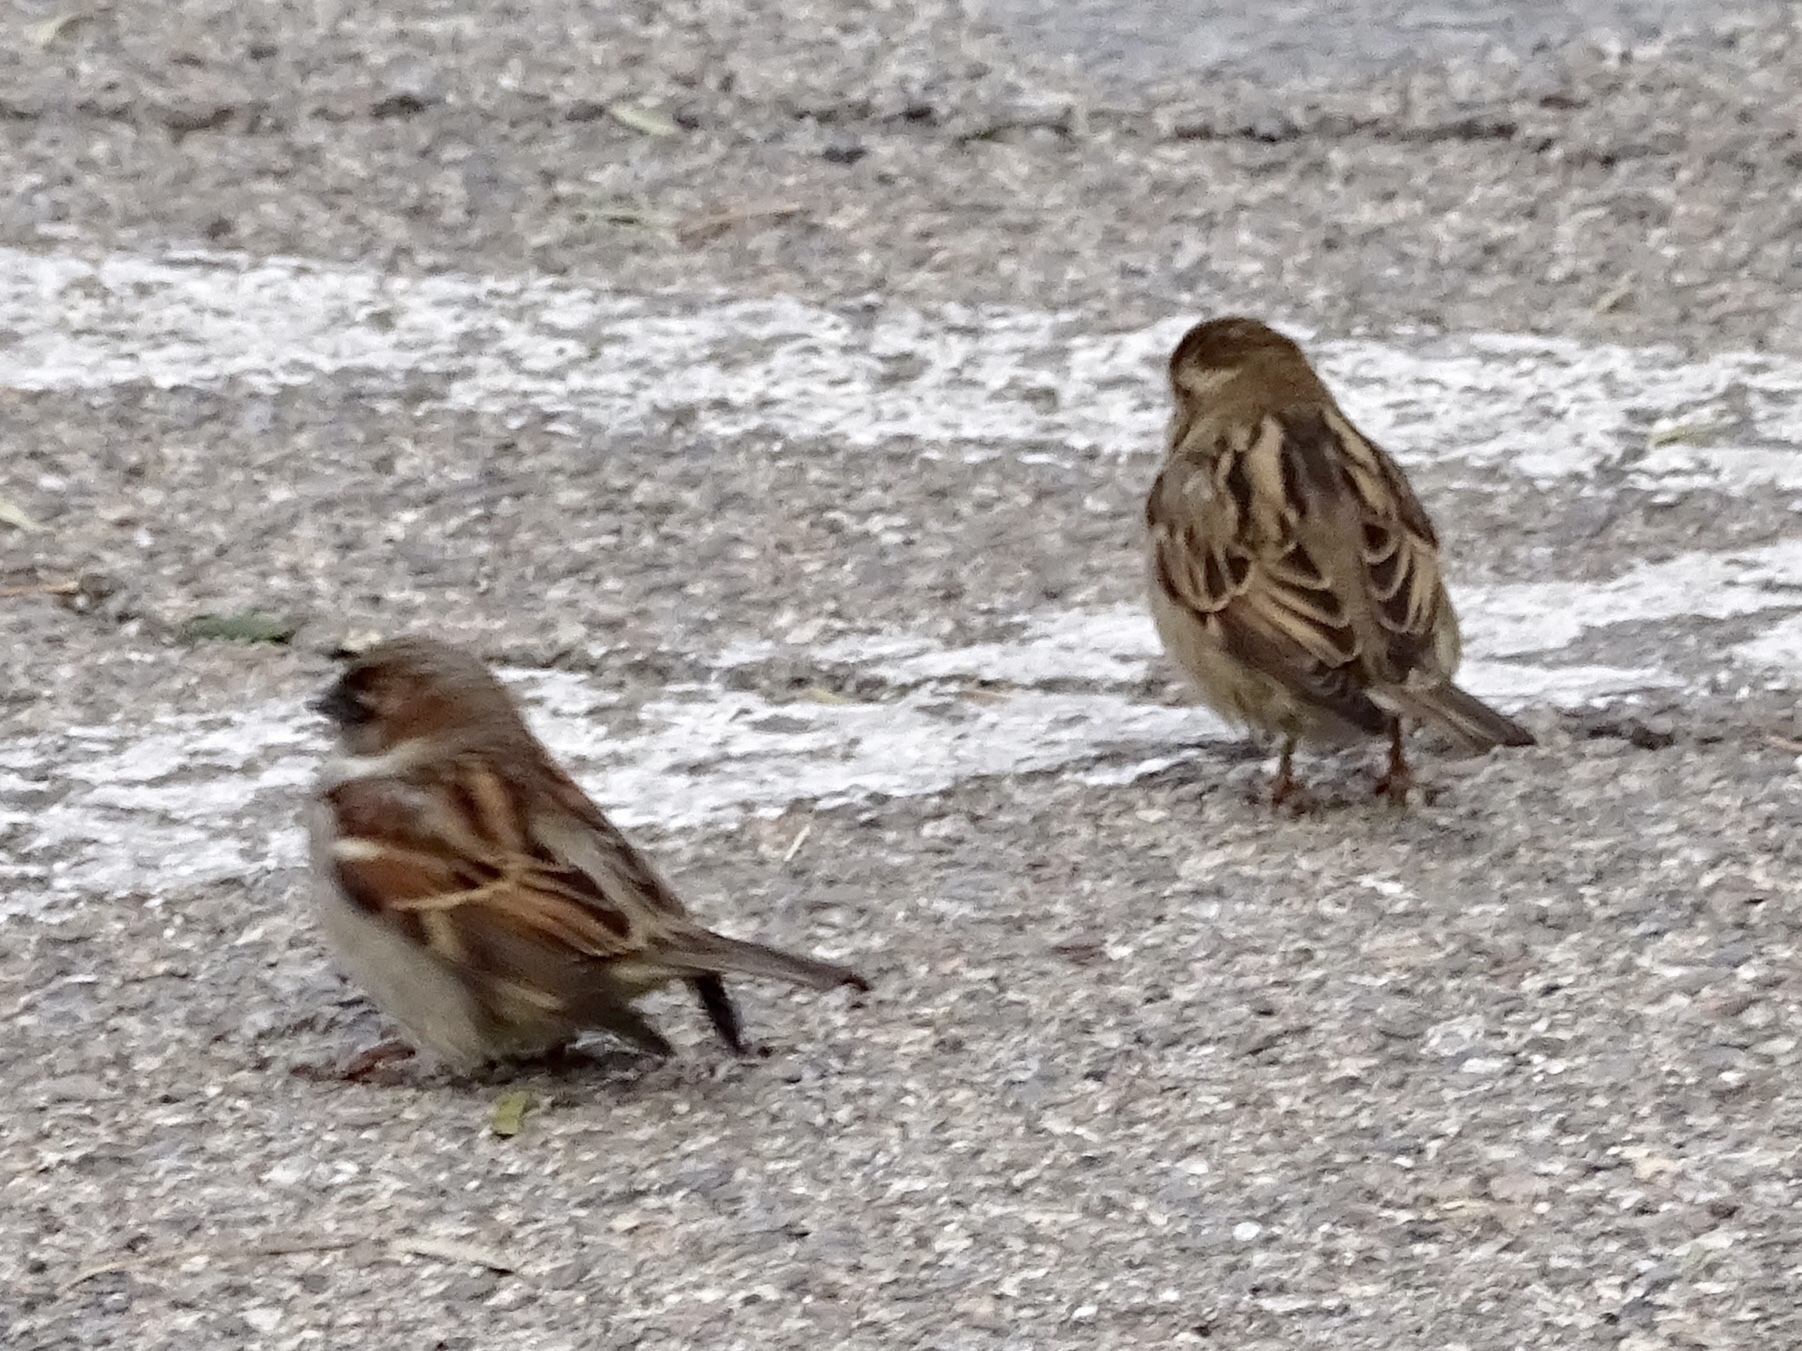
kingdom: Animalia
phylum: Chordata
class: Aves
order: Passeriformes
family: Passeridae
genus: Passer
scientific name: Passer domesticus
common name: House sparrow
